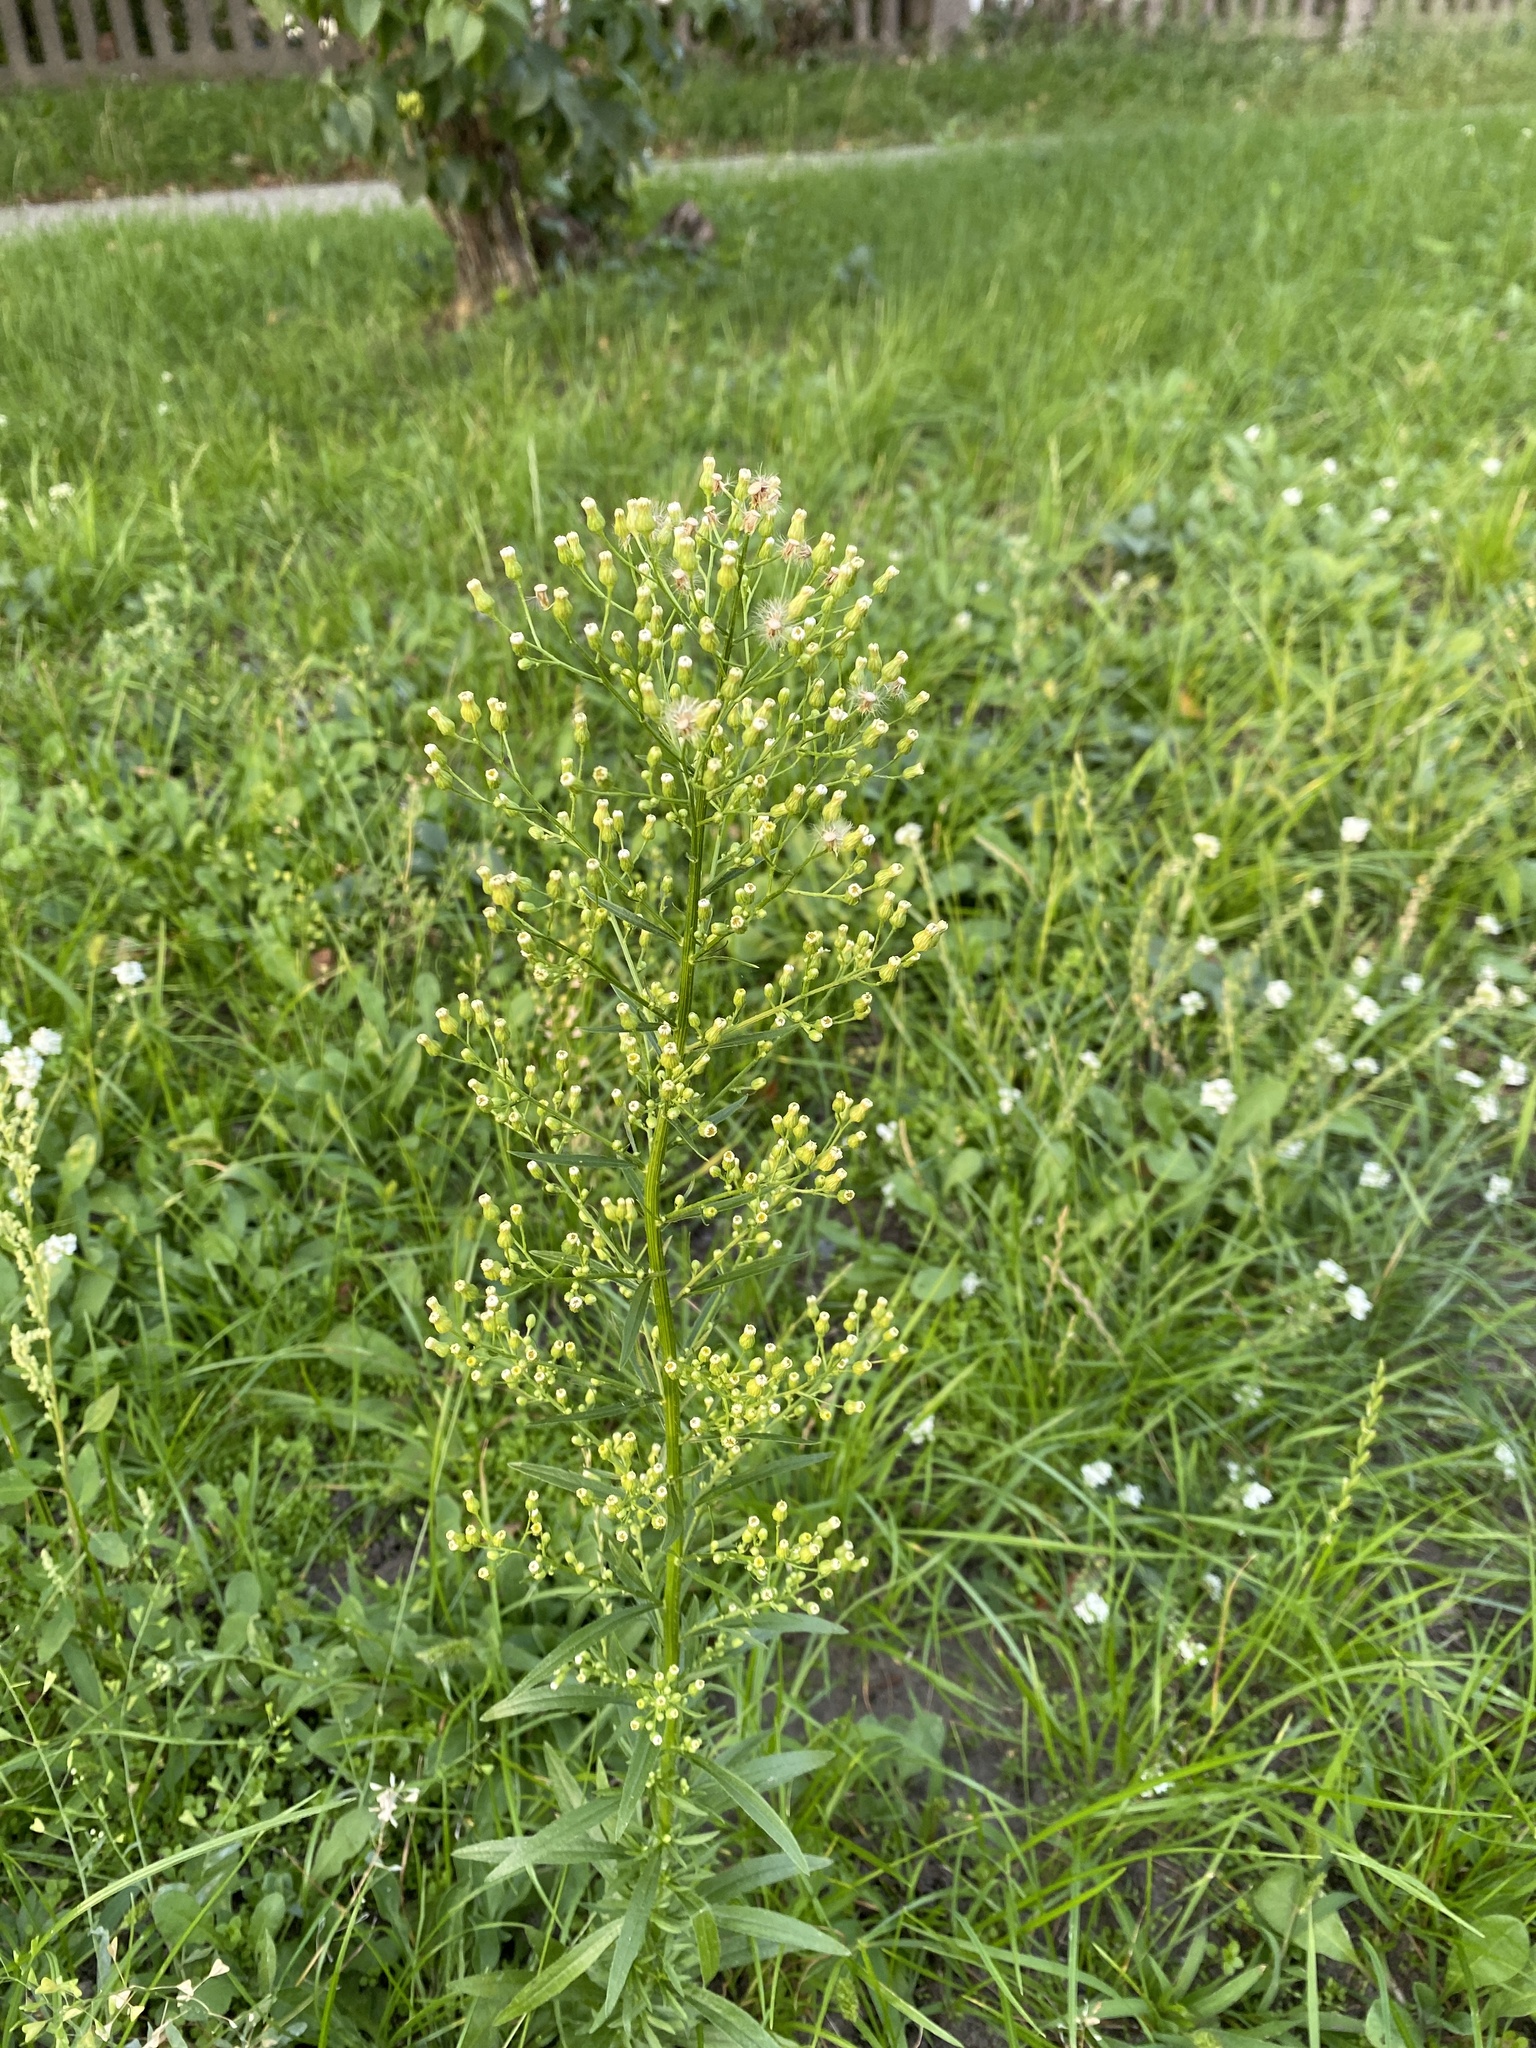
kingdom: Plantae
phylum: Tracheophyta
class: Magnoliopsida
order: Asterales
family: Asteraceae
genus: Erigeron
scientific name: Erigeron canadensis
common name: Canadian fleabane
